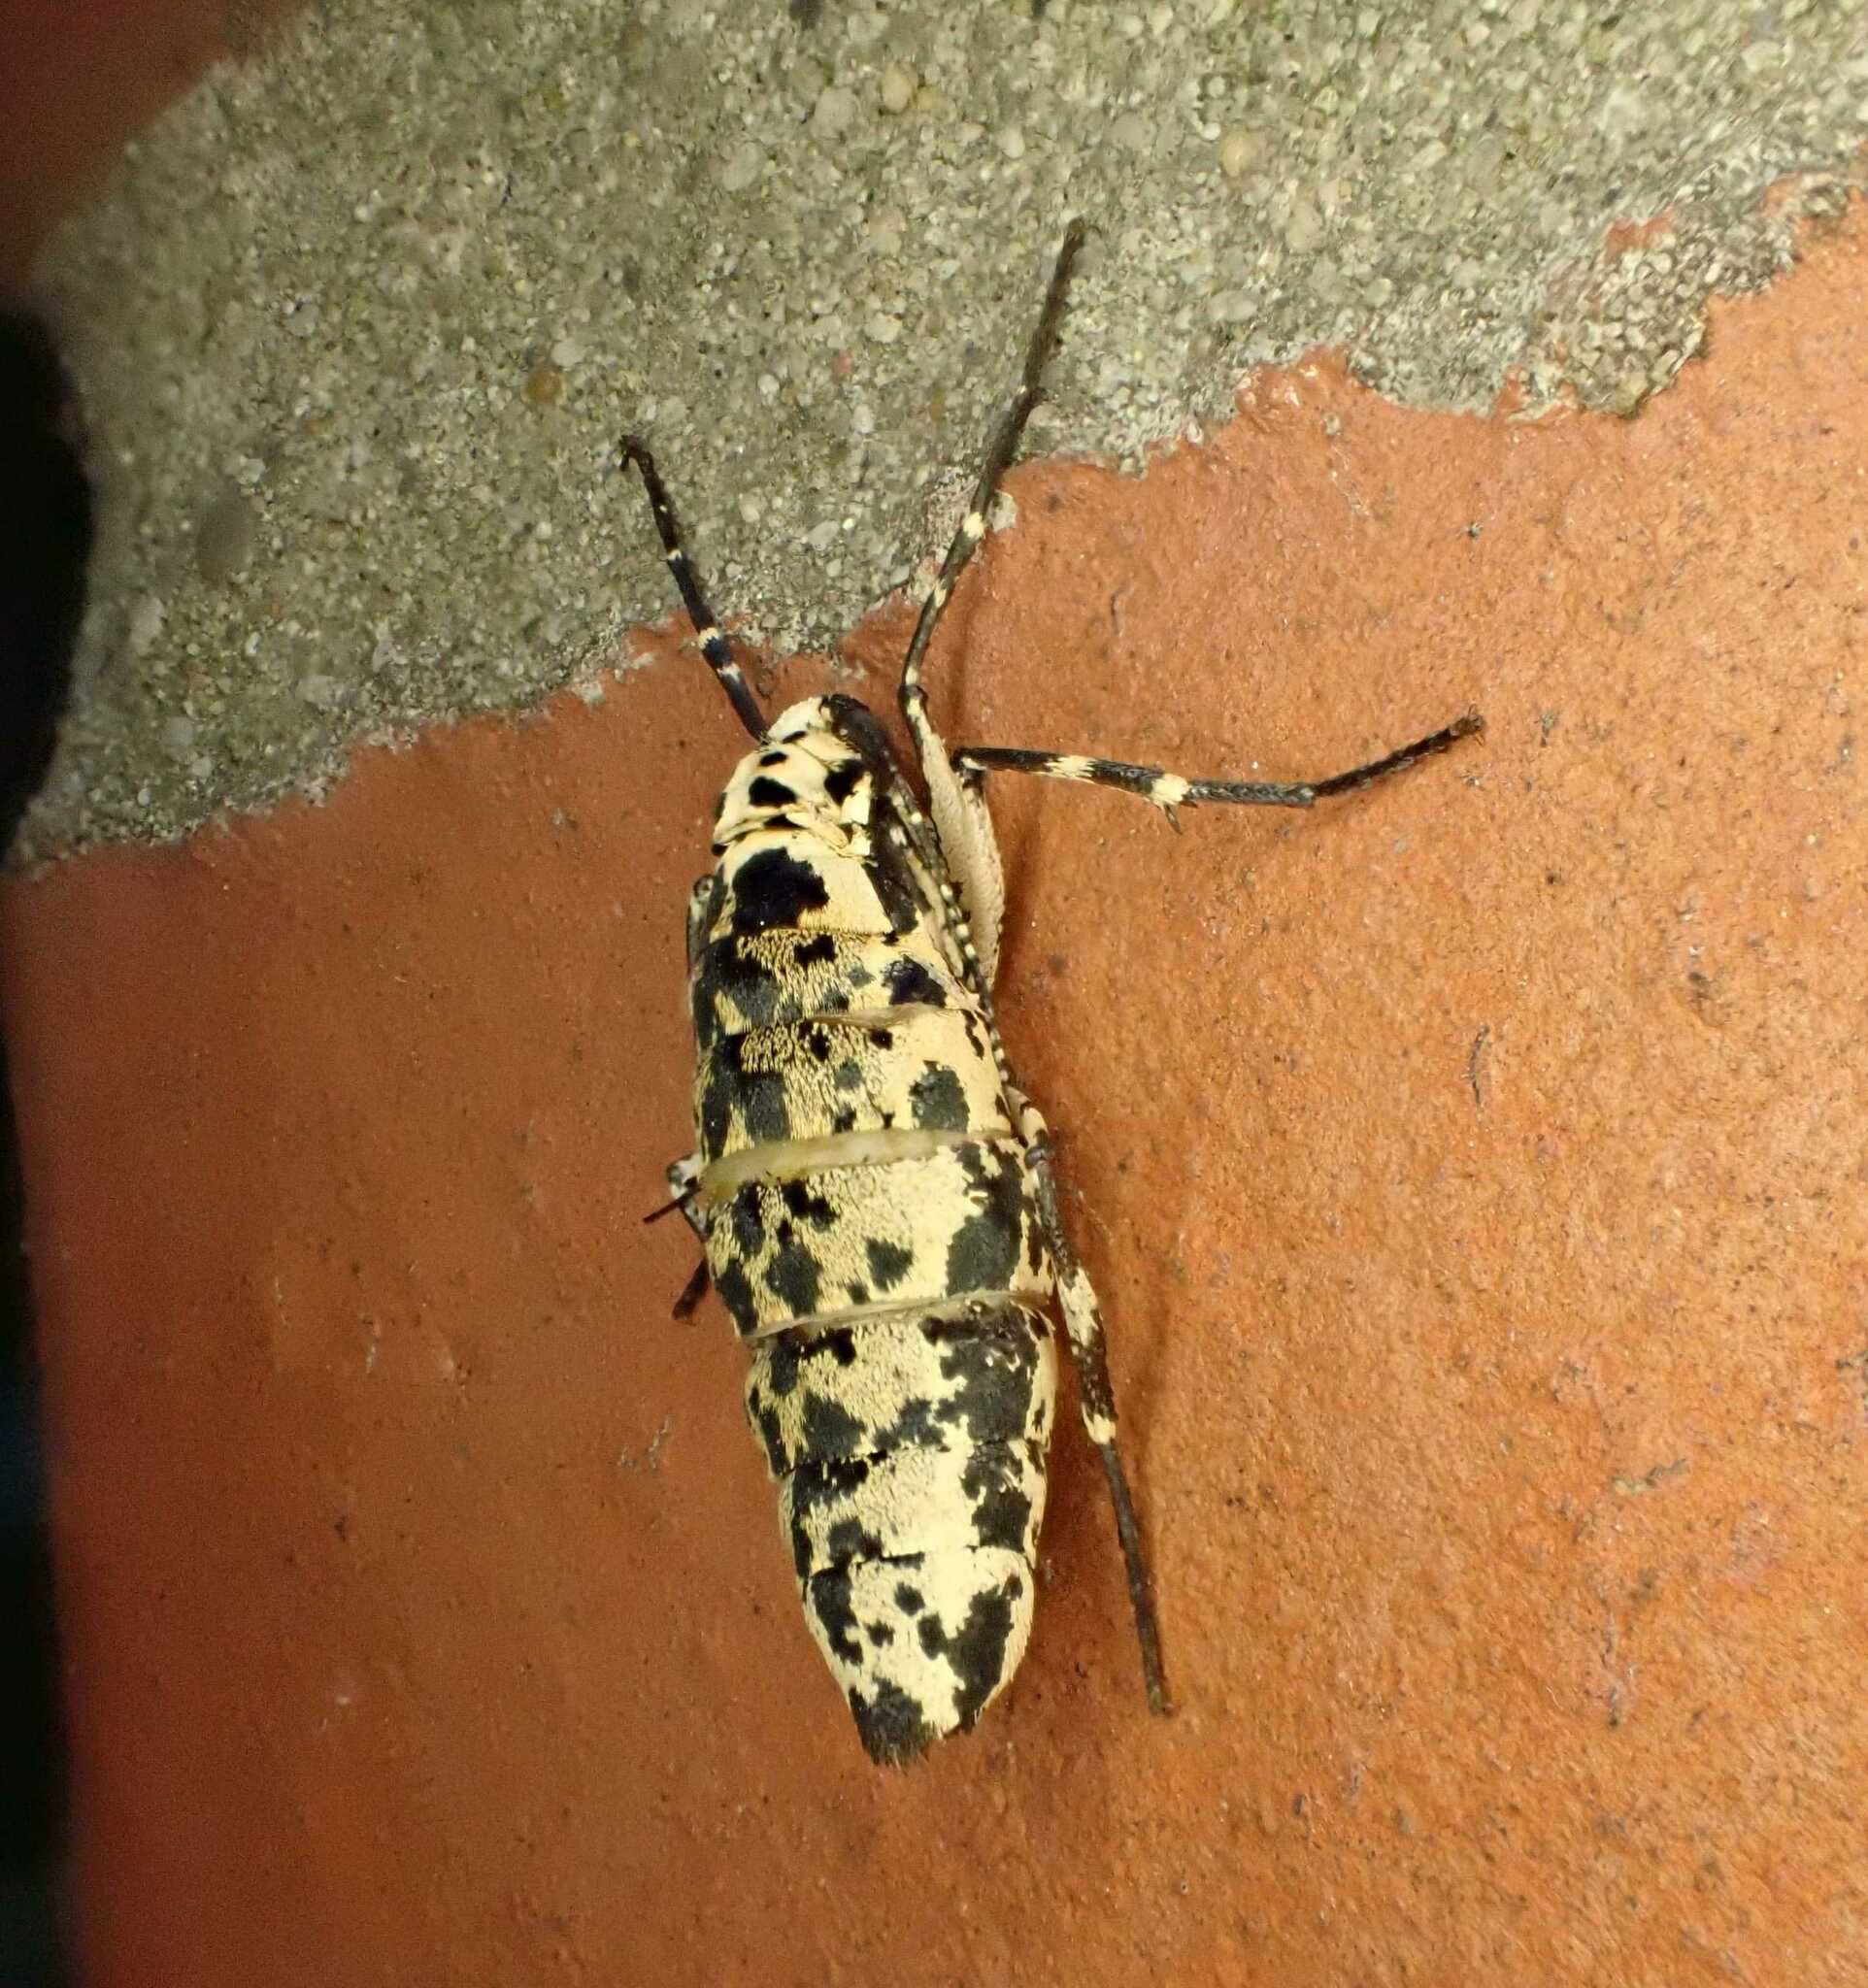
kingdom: Animalia
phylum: Arthropoda
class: Insecta
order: Lepidoptera
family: Geometridae
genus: Erannis
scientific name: Erannis defoliaria
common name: Mottled umber
